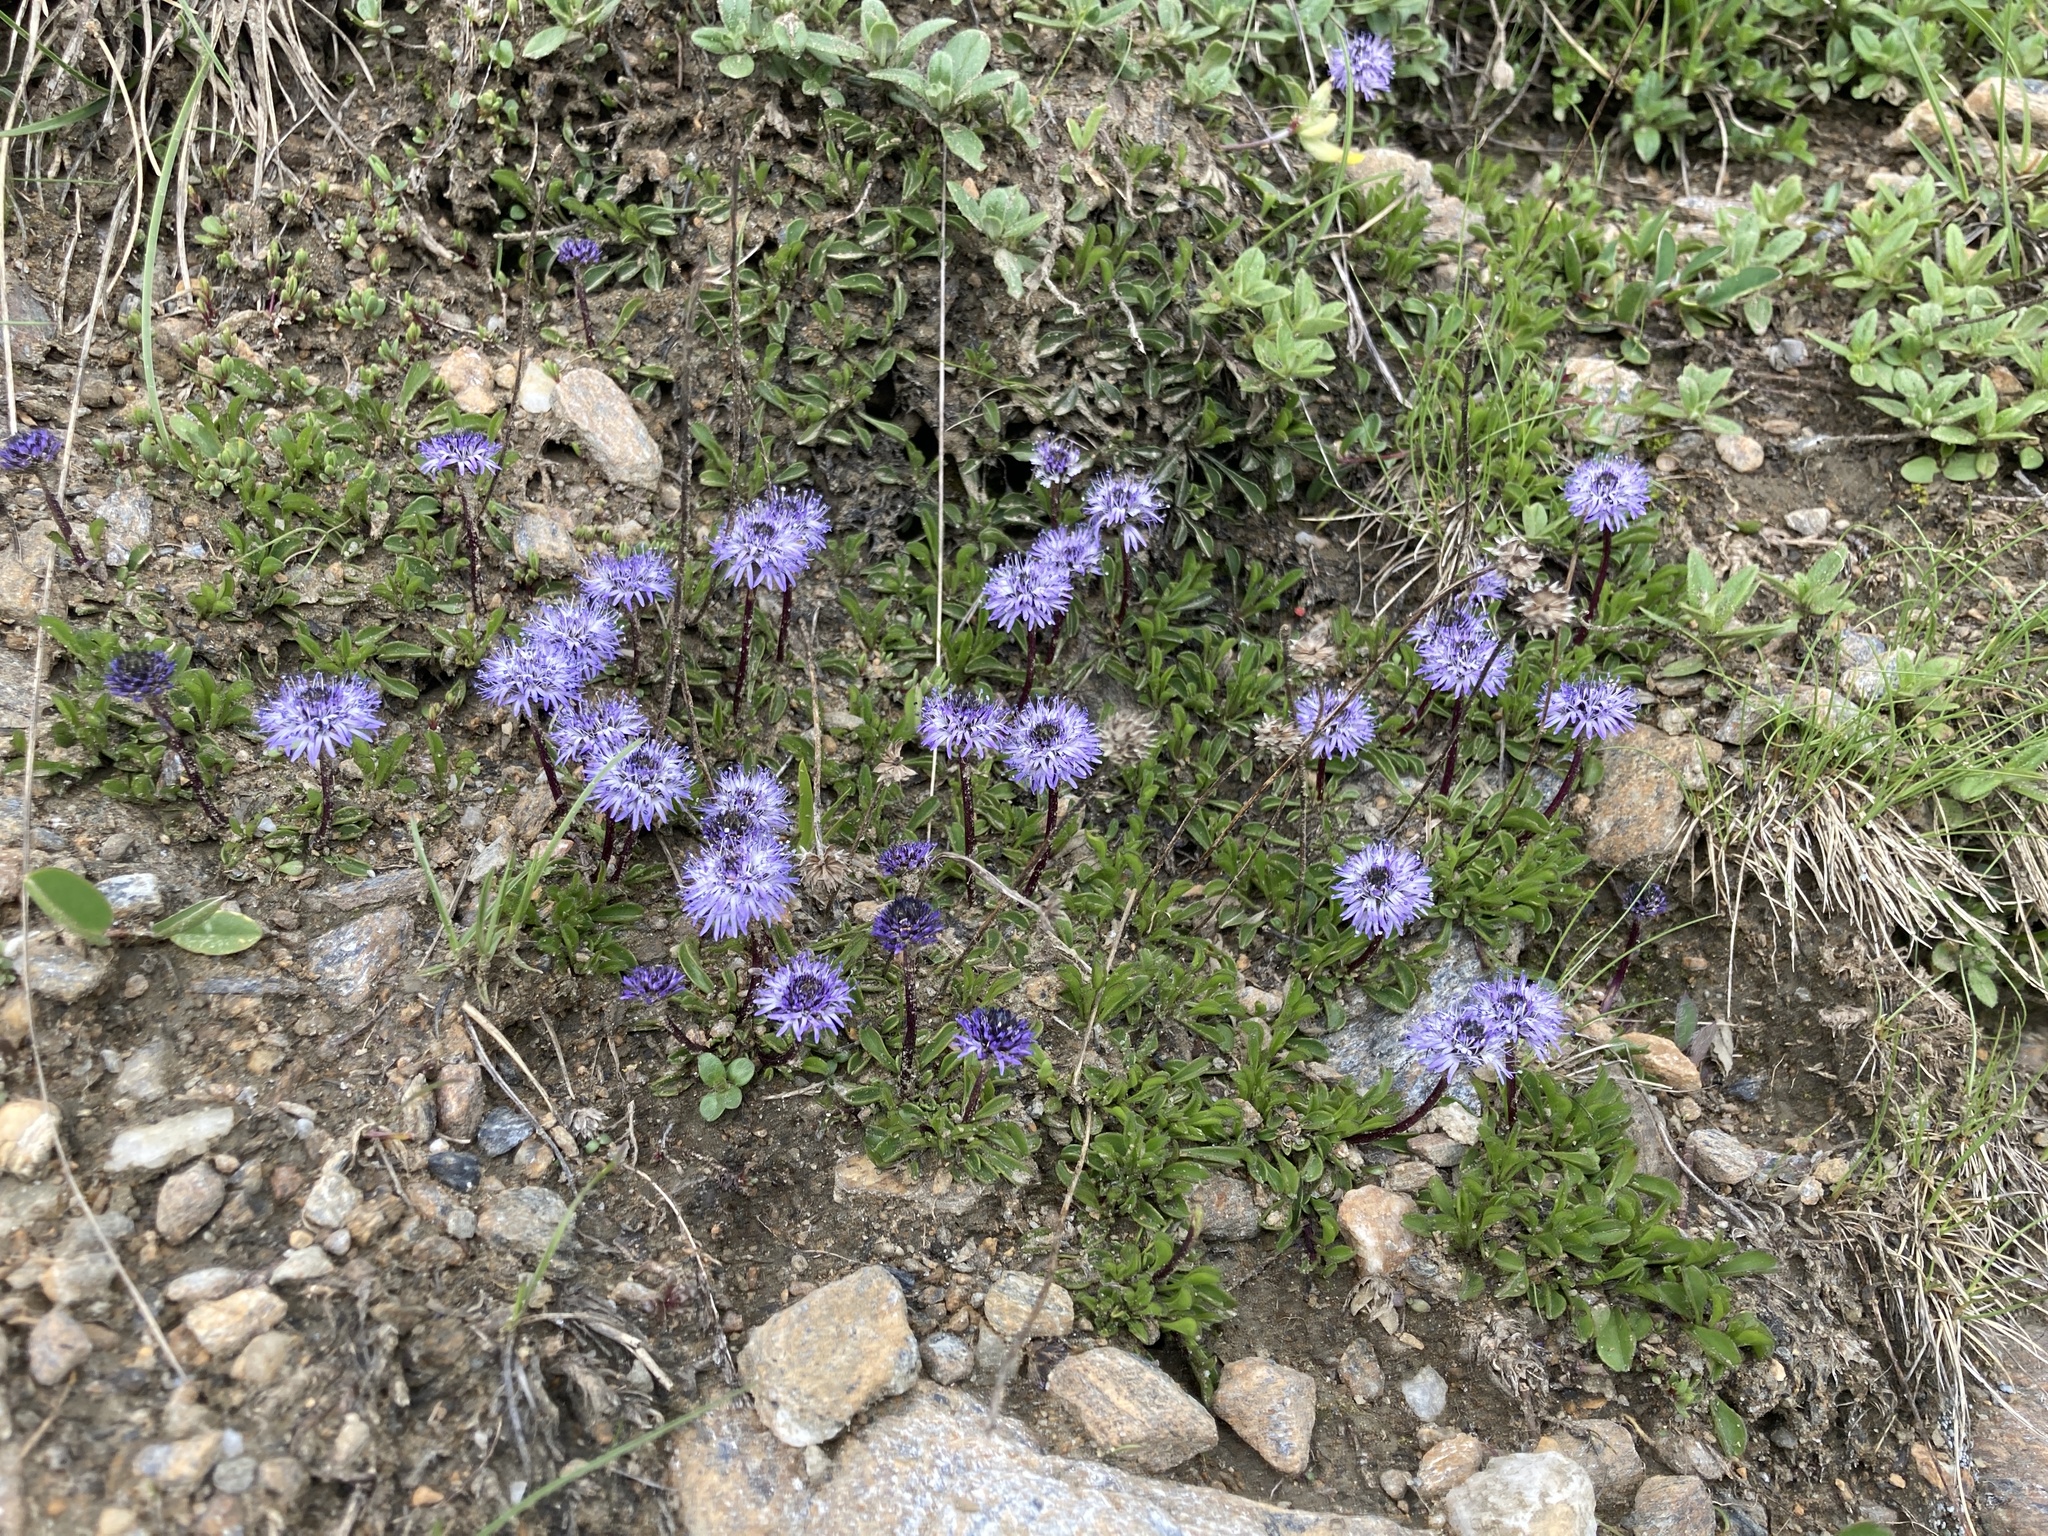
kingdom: Plantae
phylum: Tracheophyta
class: Magnoliopsida
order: Lamiales
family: Plantaginaceae
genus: Globularia
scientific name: Globularia cordifolia
